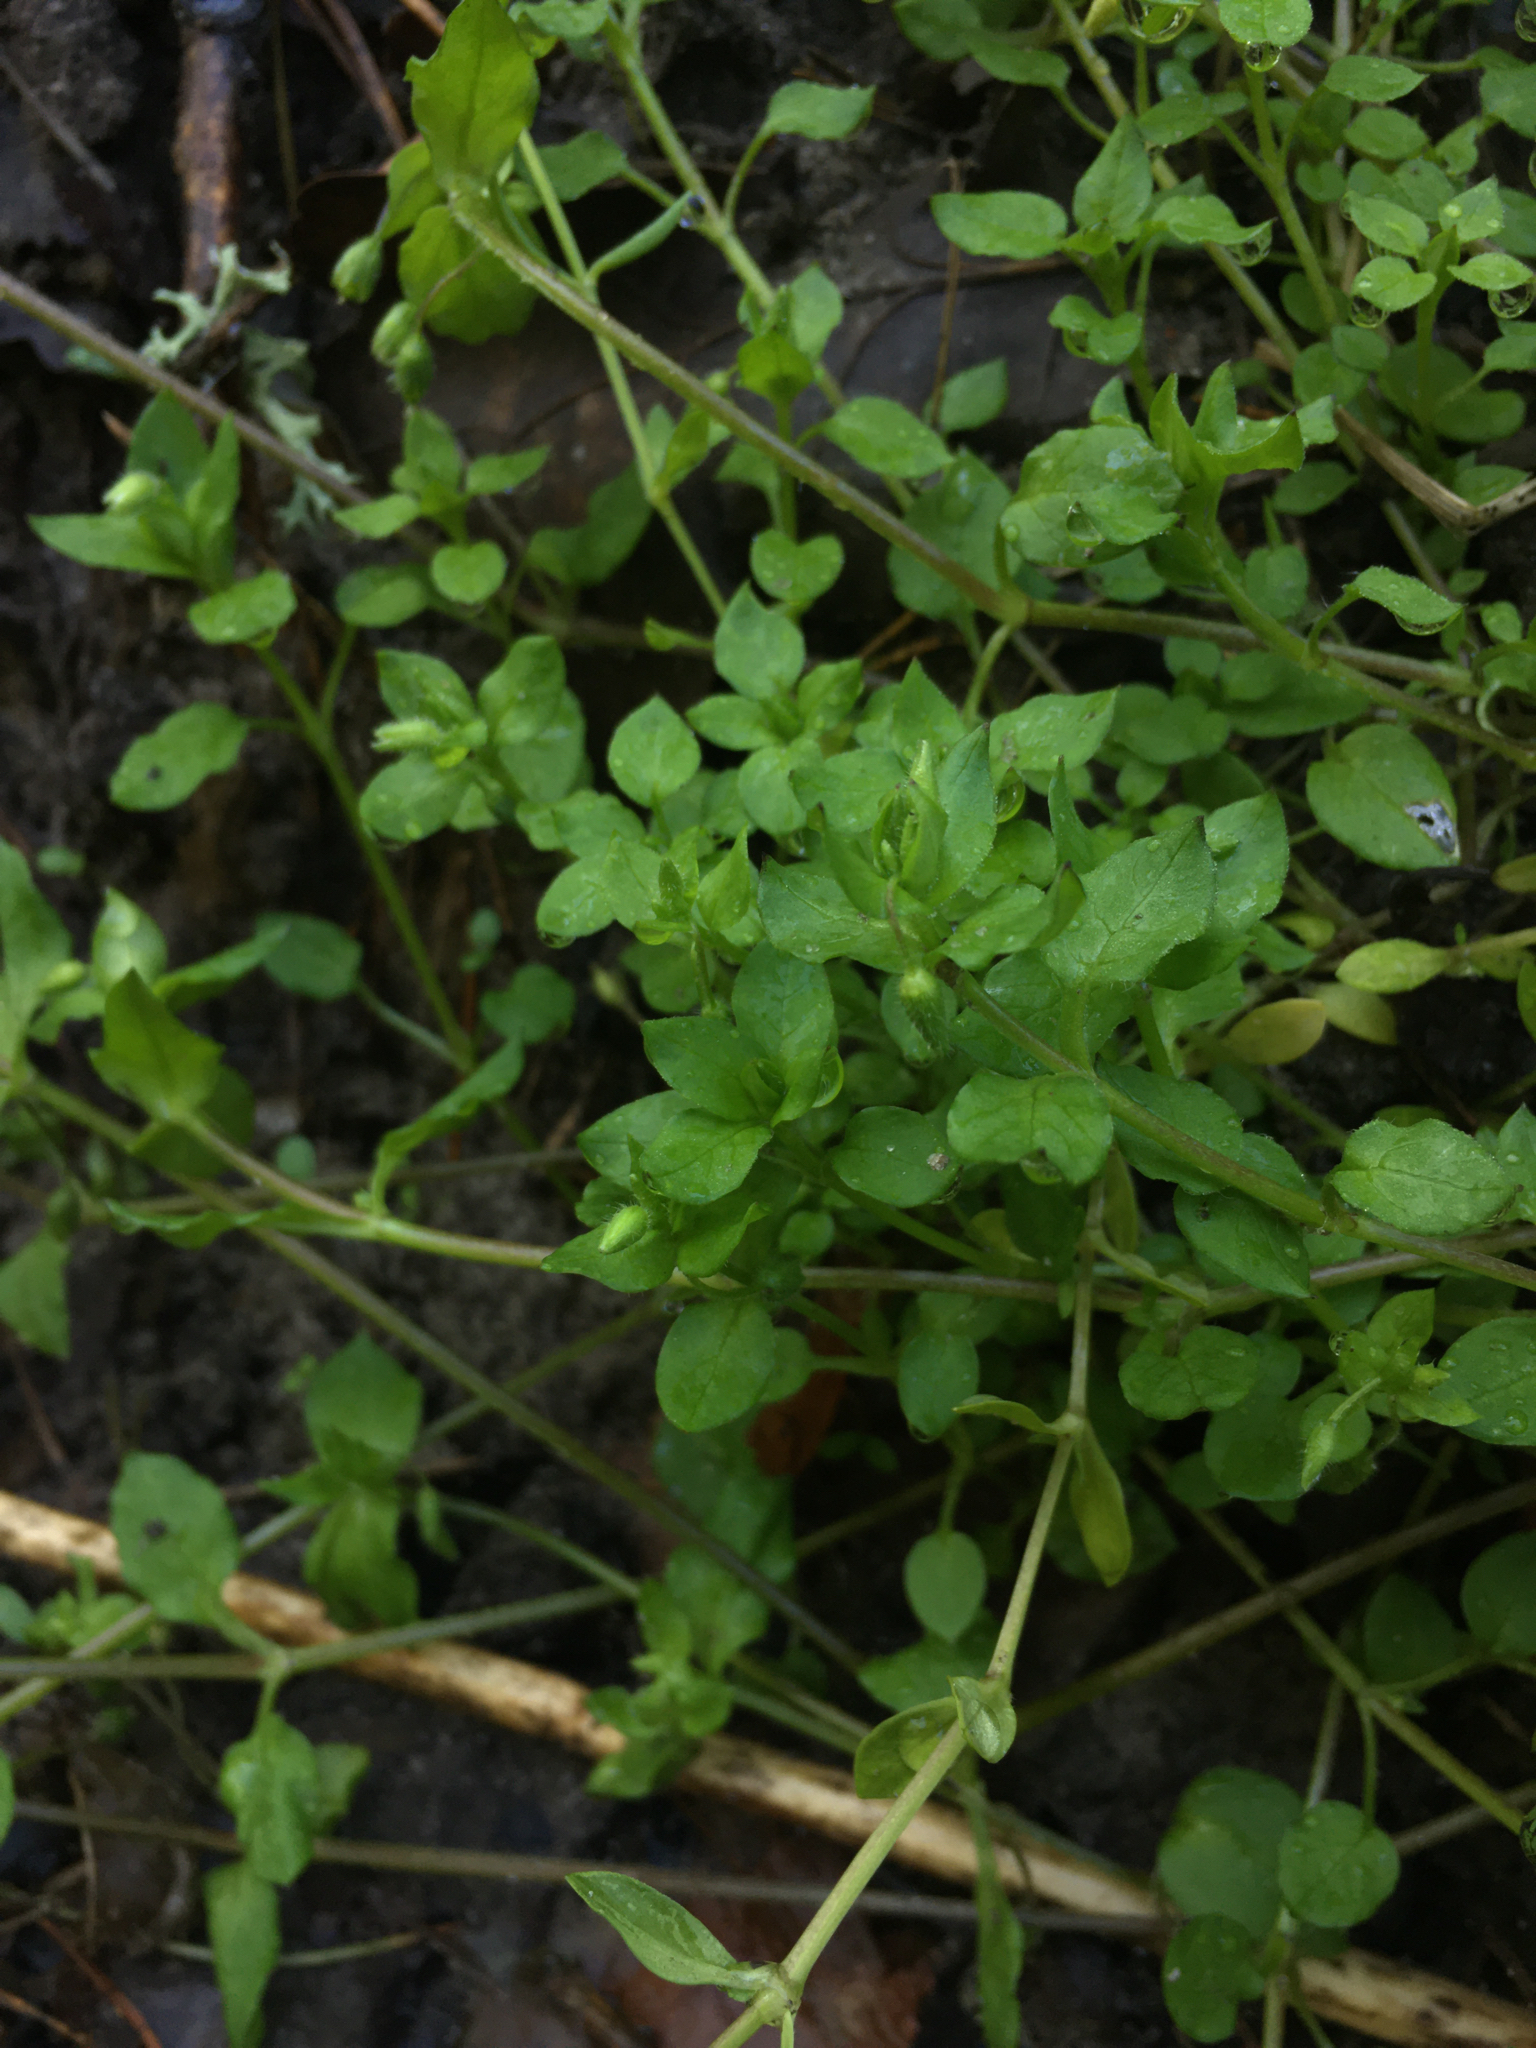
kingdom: Plantae
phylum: Tracheophyta
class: Magnoliopsida
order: Caryophyllales
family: Caryophyllaceae
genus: Stellaria
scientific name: Stellaria media
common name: Common chickweed
